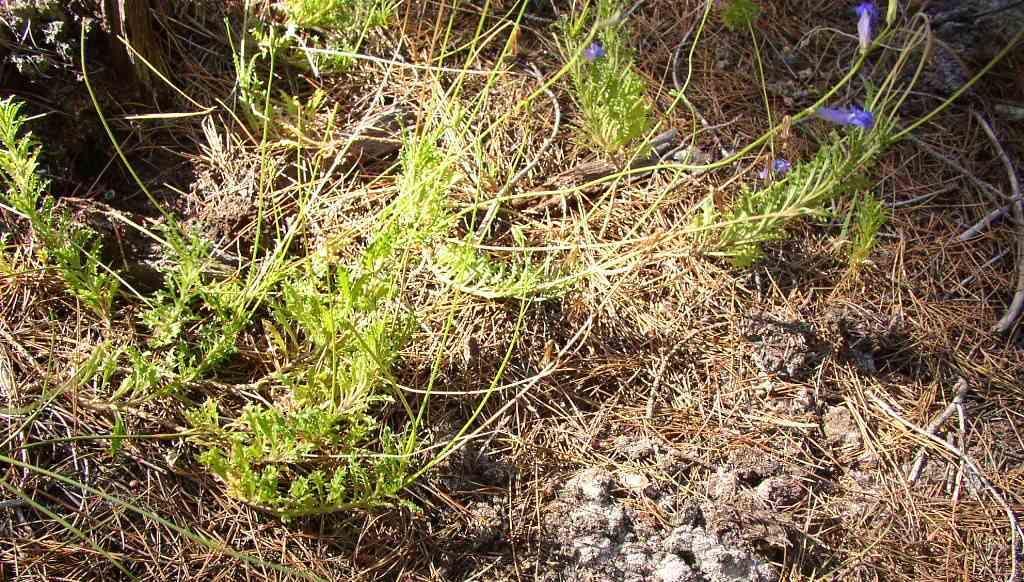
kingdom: Plantae
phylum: Tracheophyta
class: Magnoliopsida
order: Asterales
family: Campanulaceae
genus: Lobelia
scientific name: Lobelia coronopifolia
